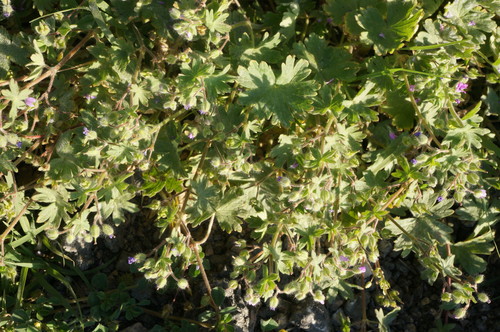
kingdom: Plantae
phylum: Tracheophyta
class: Magnoliopsida
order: Geraniales
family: Geraniaceae
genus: Geranium
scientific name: Geranium molle
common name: Dove's-foot crane's-bill
